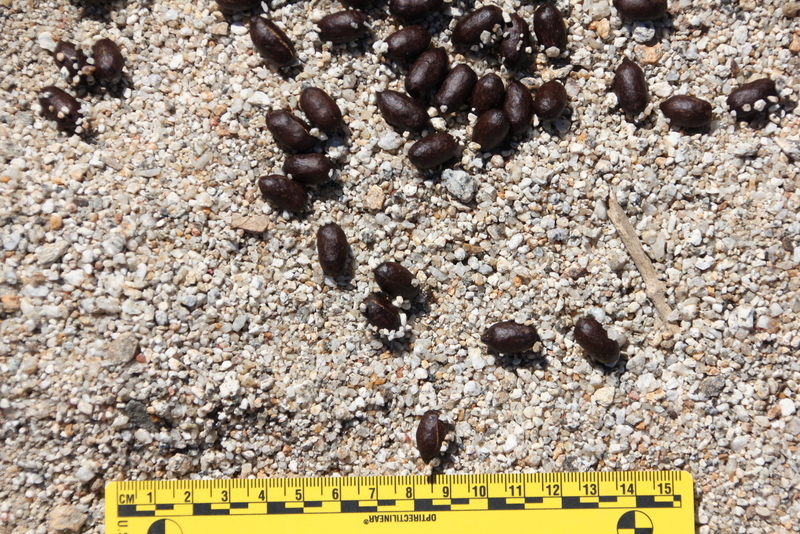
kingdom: Animalia
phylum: Chordata
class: Mammalia
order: Artiodactyla
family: Bovidae
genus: Ovis
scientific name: Ovis canadensis
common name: Bighorn sheep
